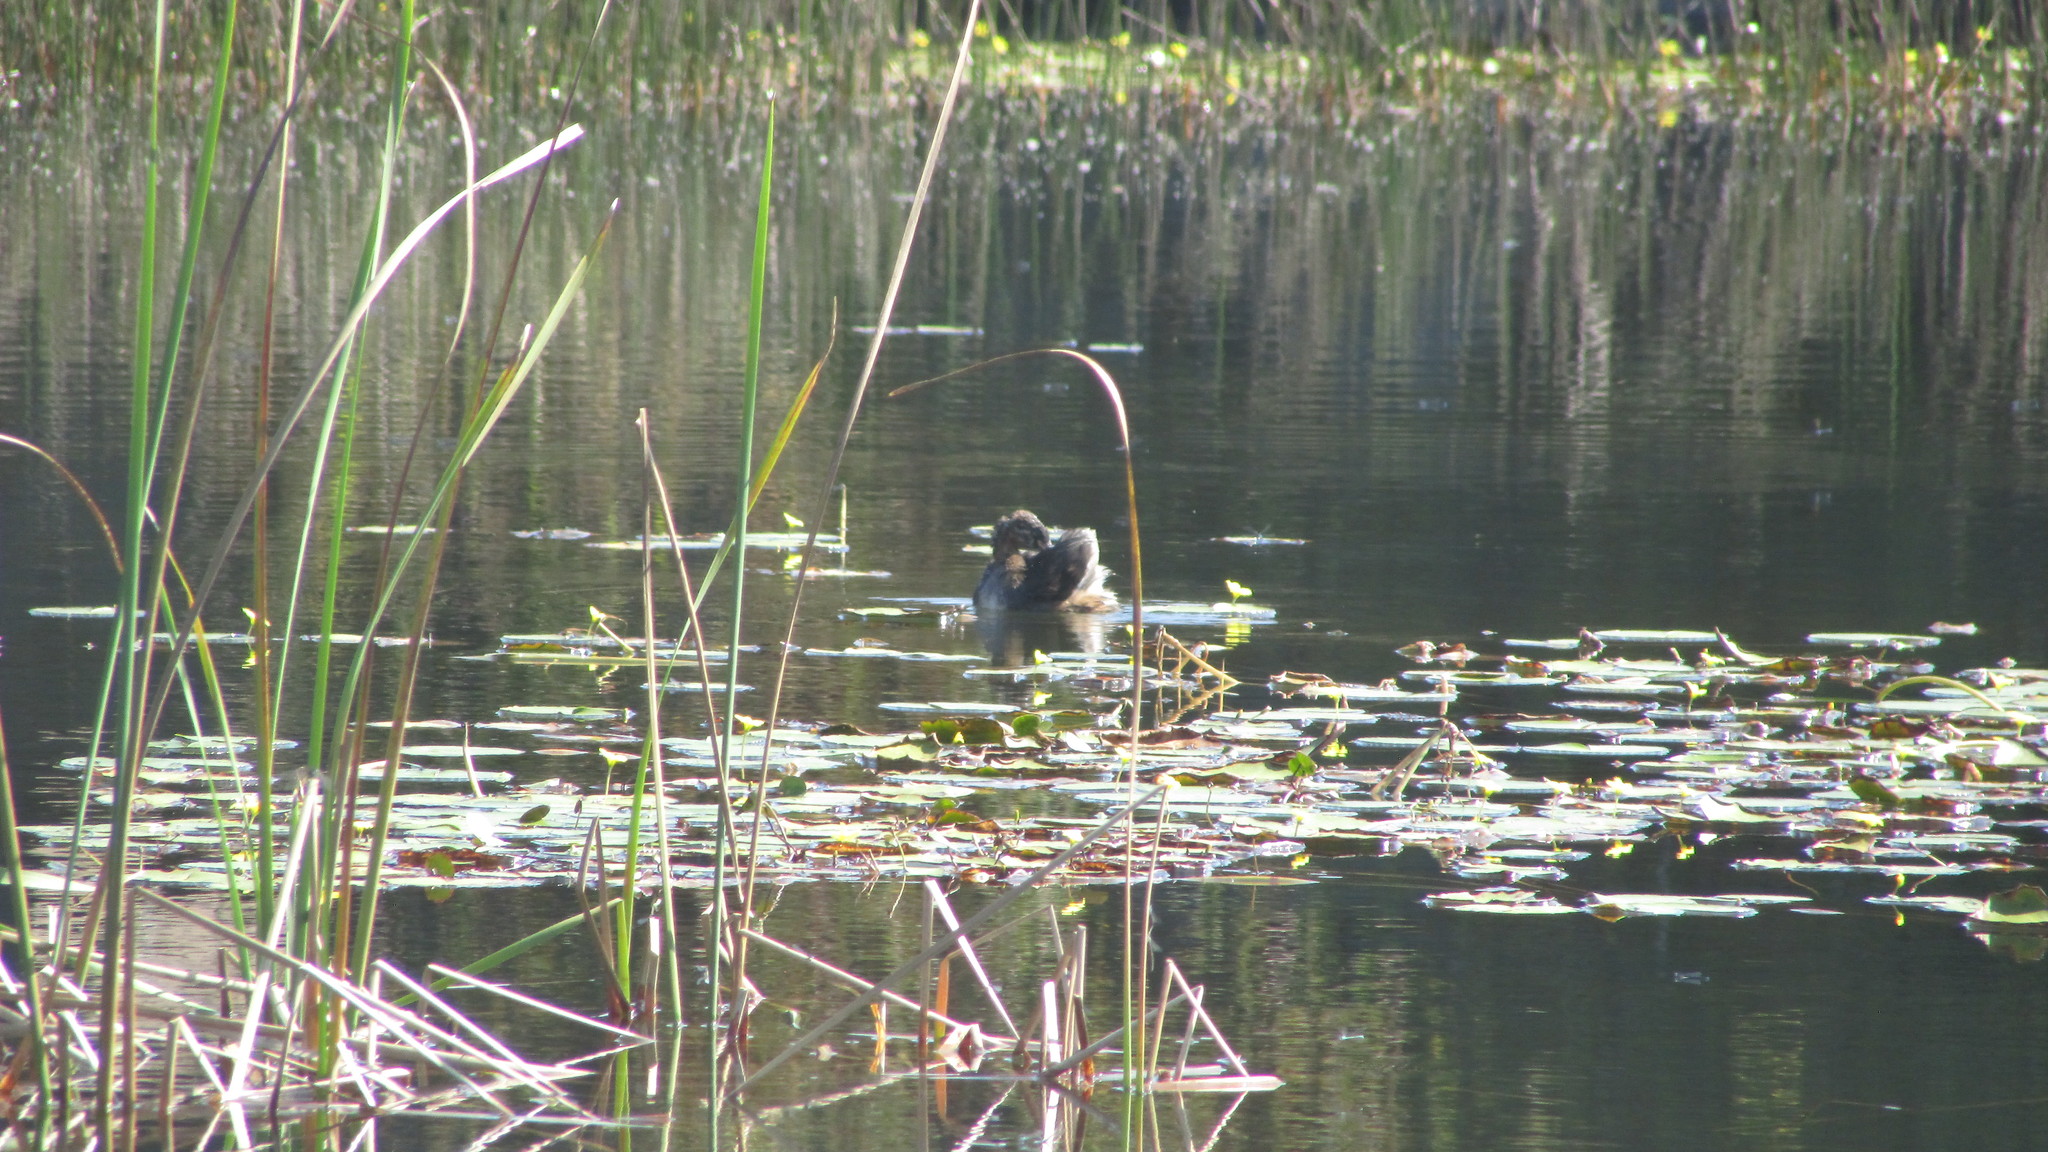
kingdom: Animalia
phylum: Chordata
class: Aves
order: Podicipediformes
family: Podicipedidae
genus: Tachybaptus
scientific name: Tachybaptus ruficollis
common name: Little grebe
